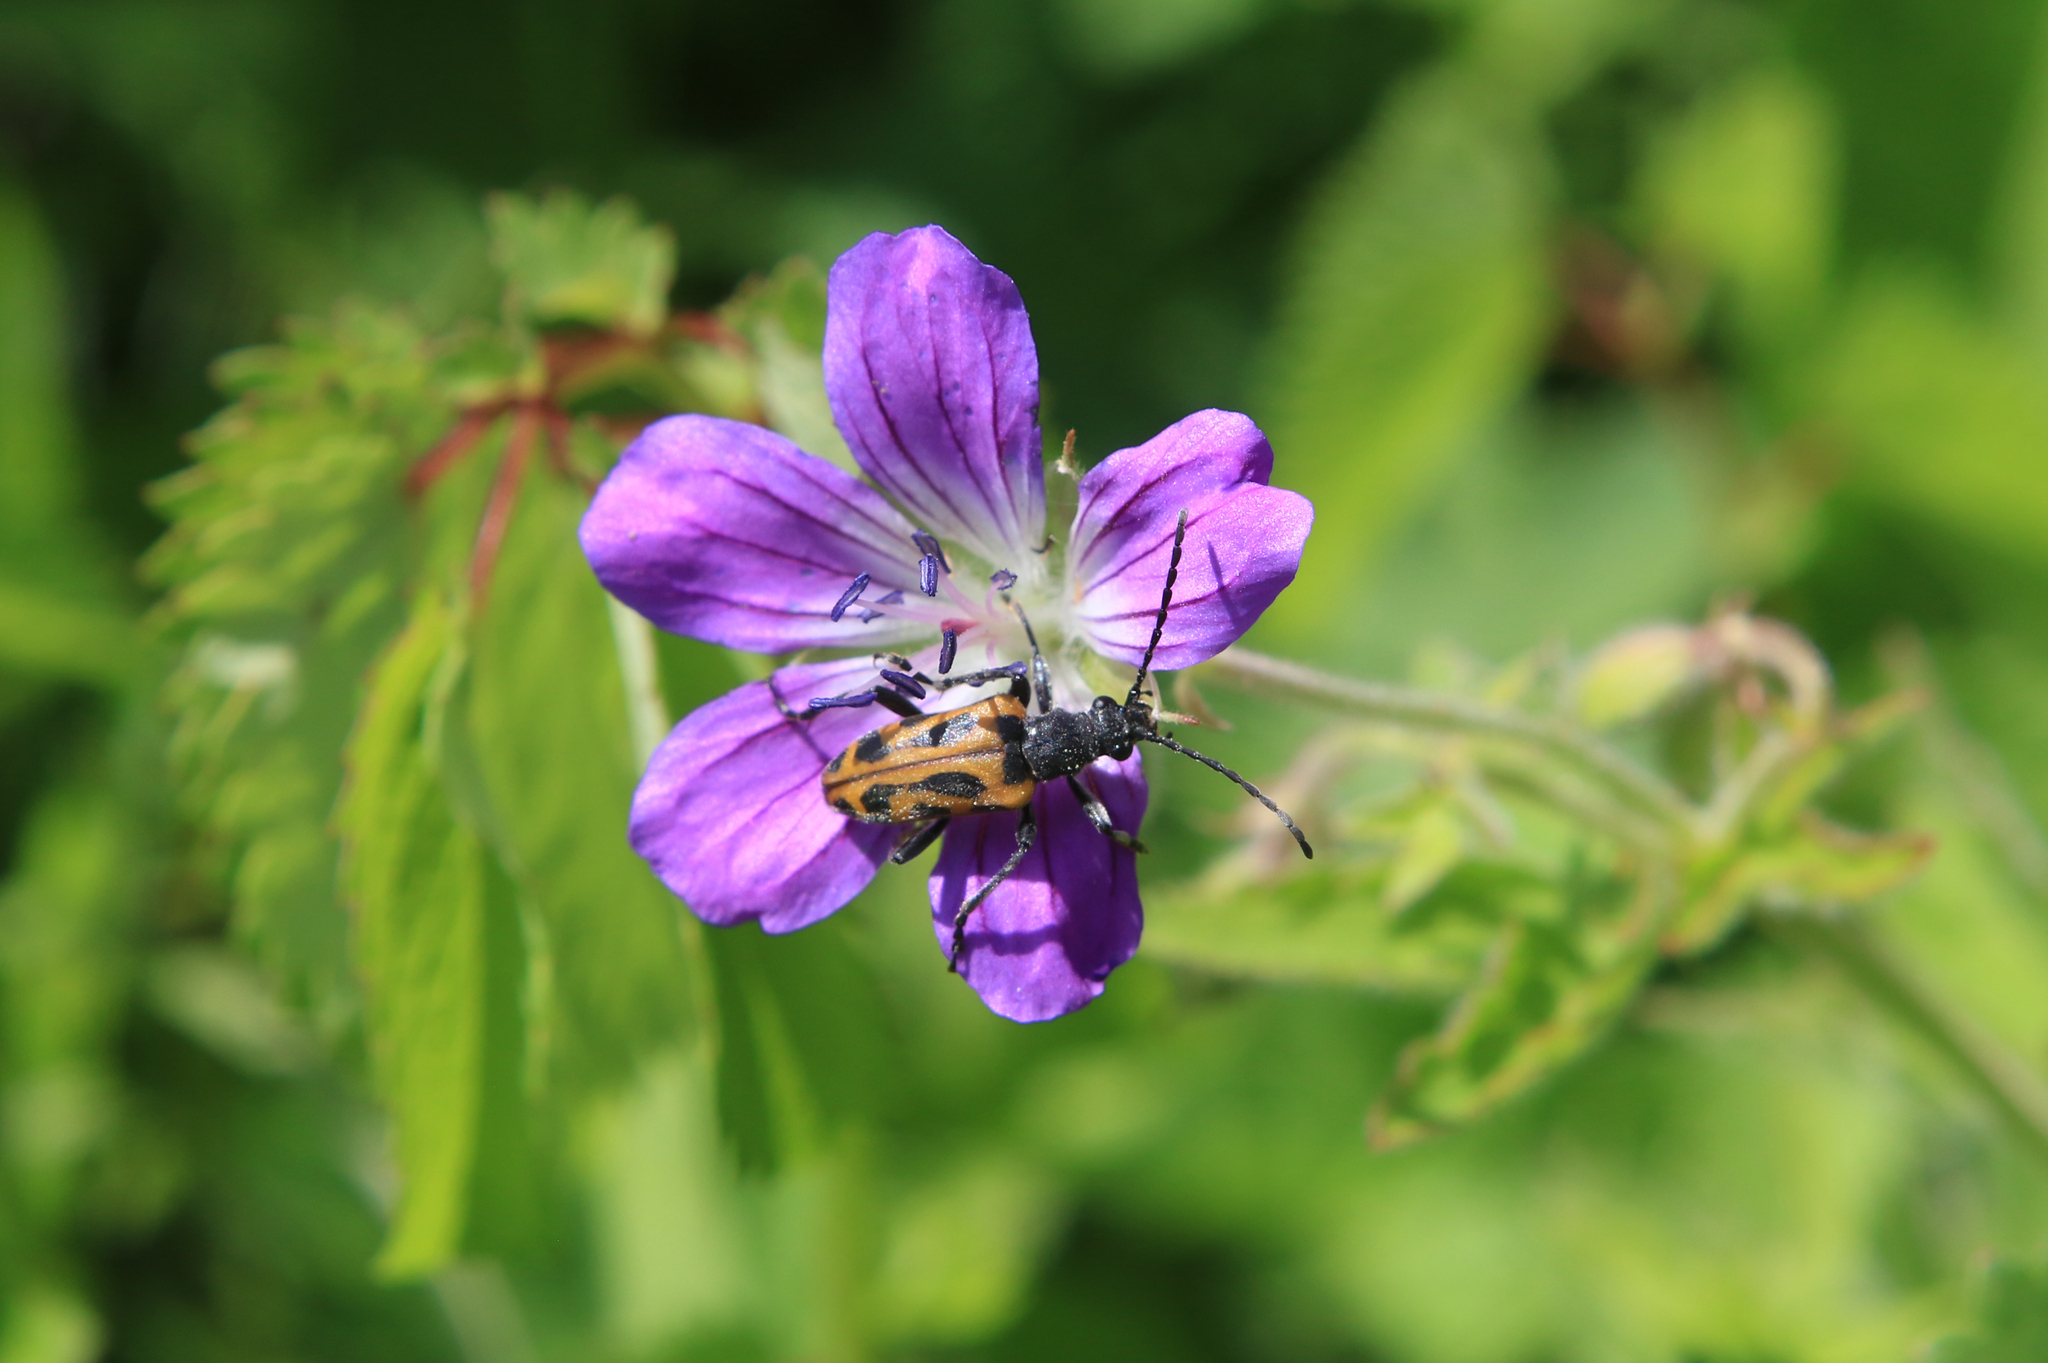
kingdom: Animalia
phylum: Arthropoda
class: Insecta
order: Coleoptera
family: Cerambycidae
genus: Brachyta
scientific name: Brachyta interrogationis
